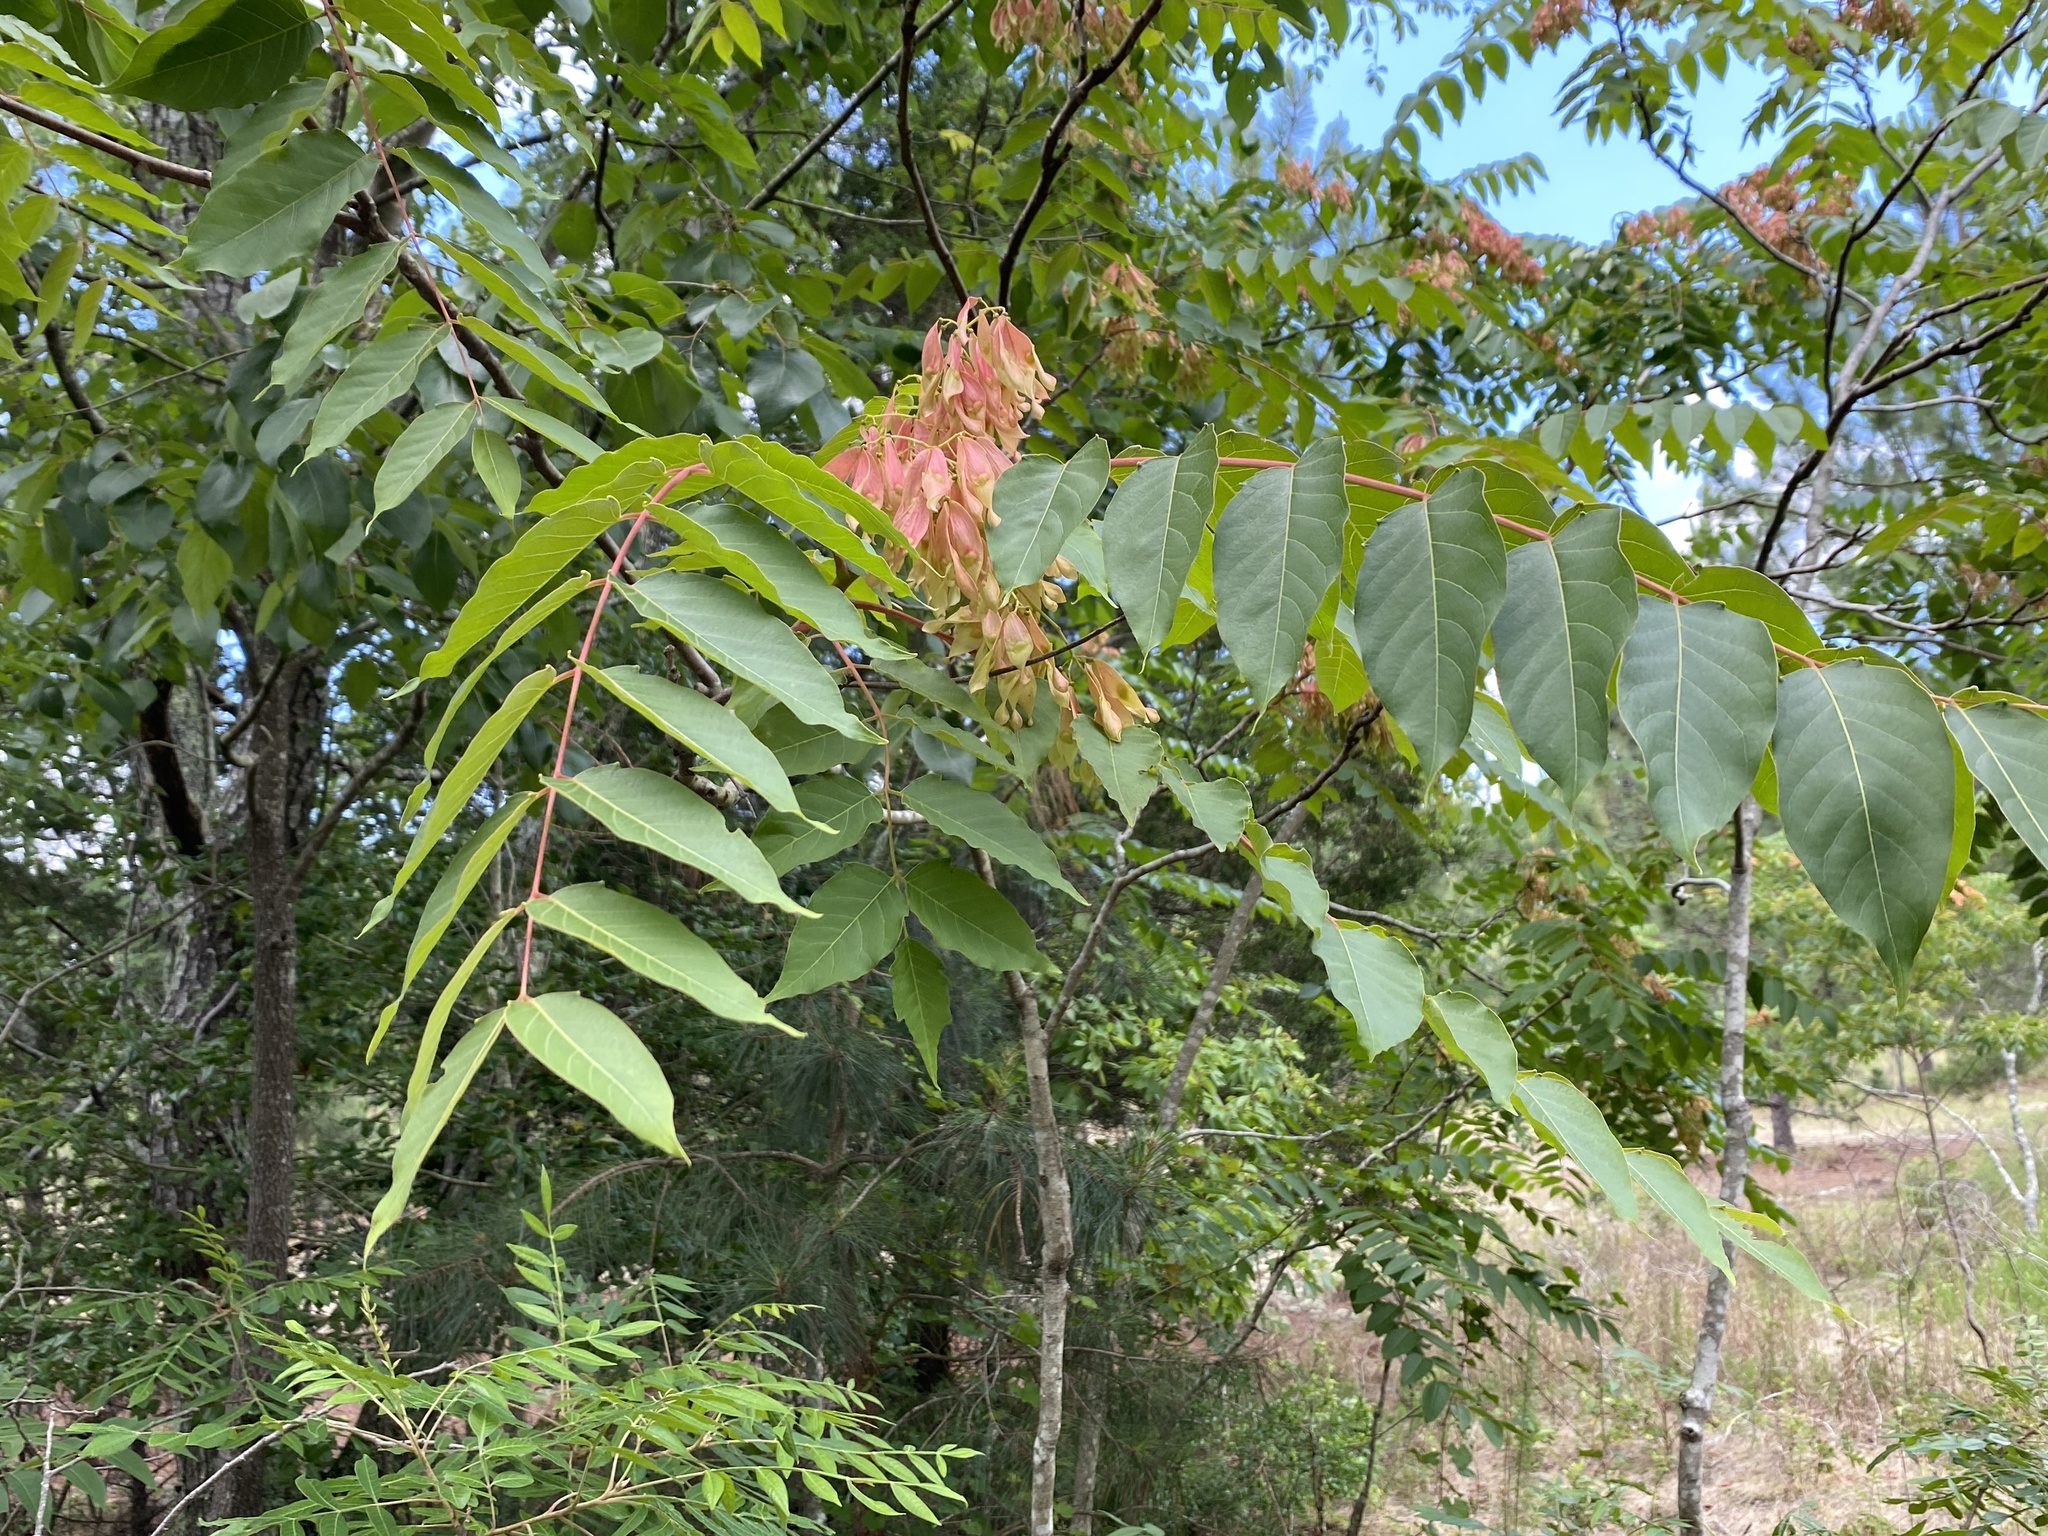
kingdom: Plantae
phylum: Tracheophyta
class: Magnoliopsida
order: Sapindales
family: Simaroubaceae
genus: Ailanthus
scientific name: Ailanthus altissima
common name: Tree-of-heaven
